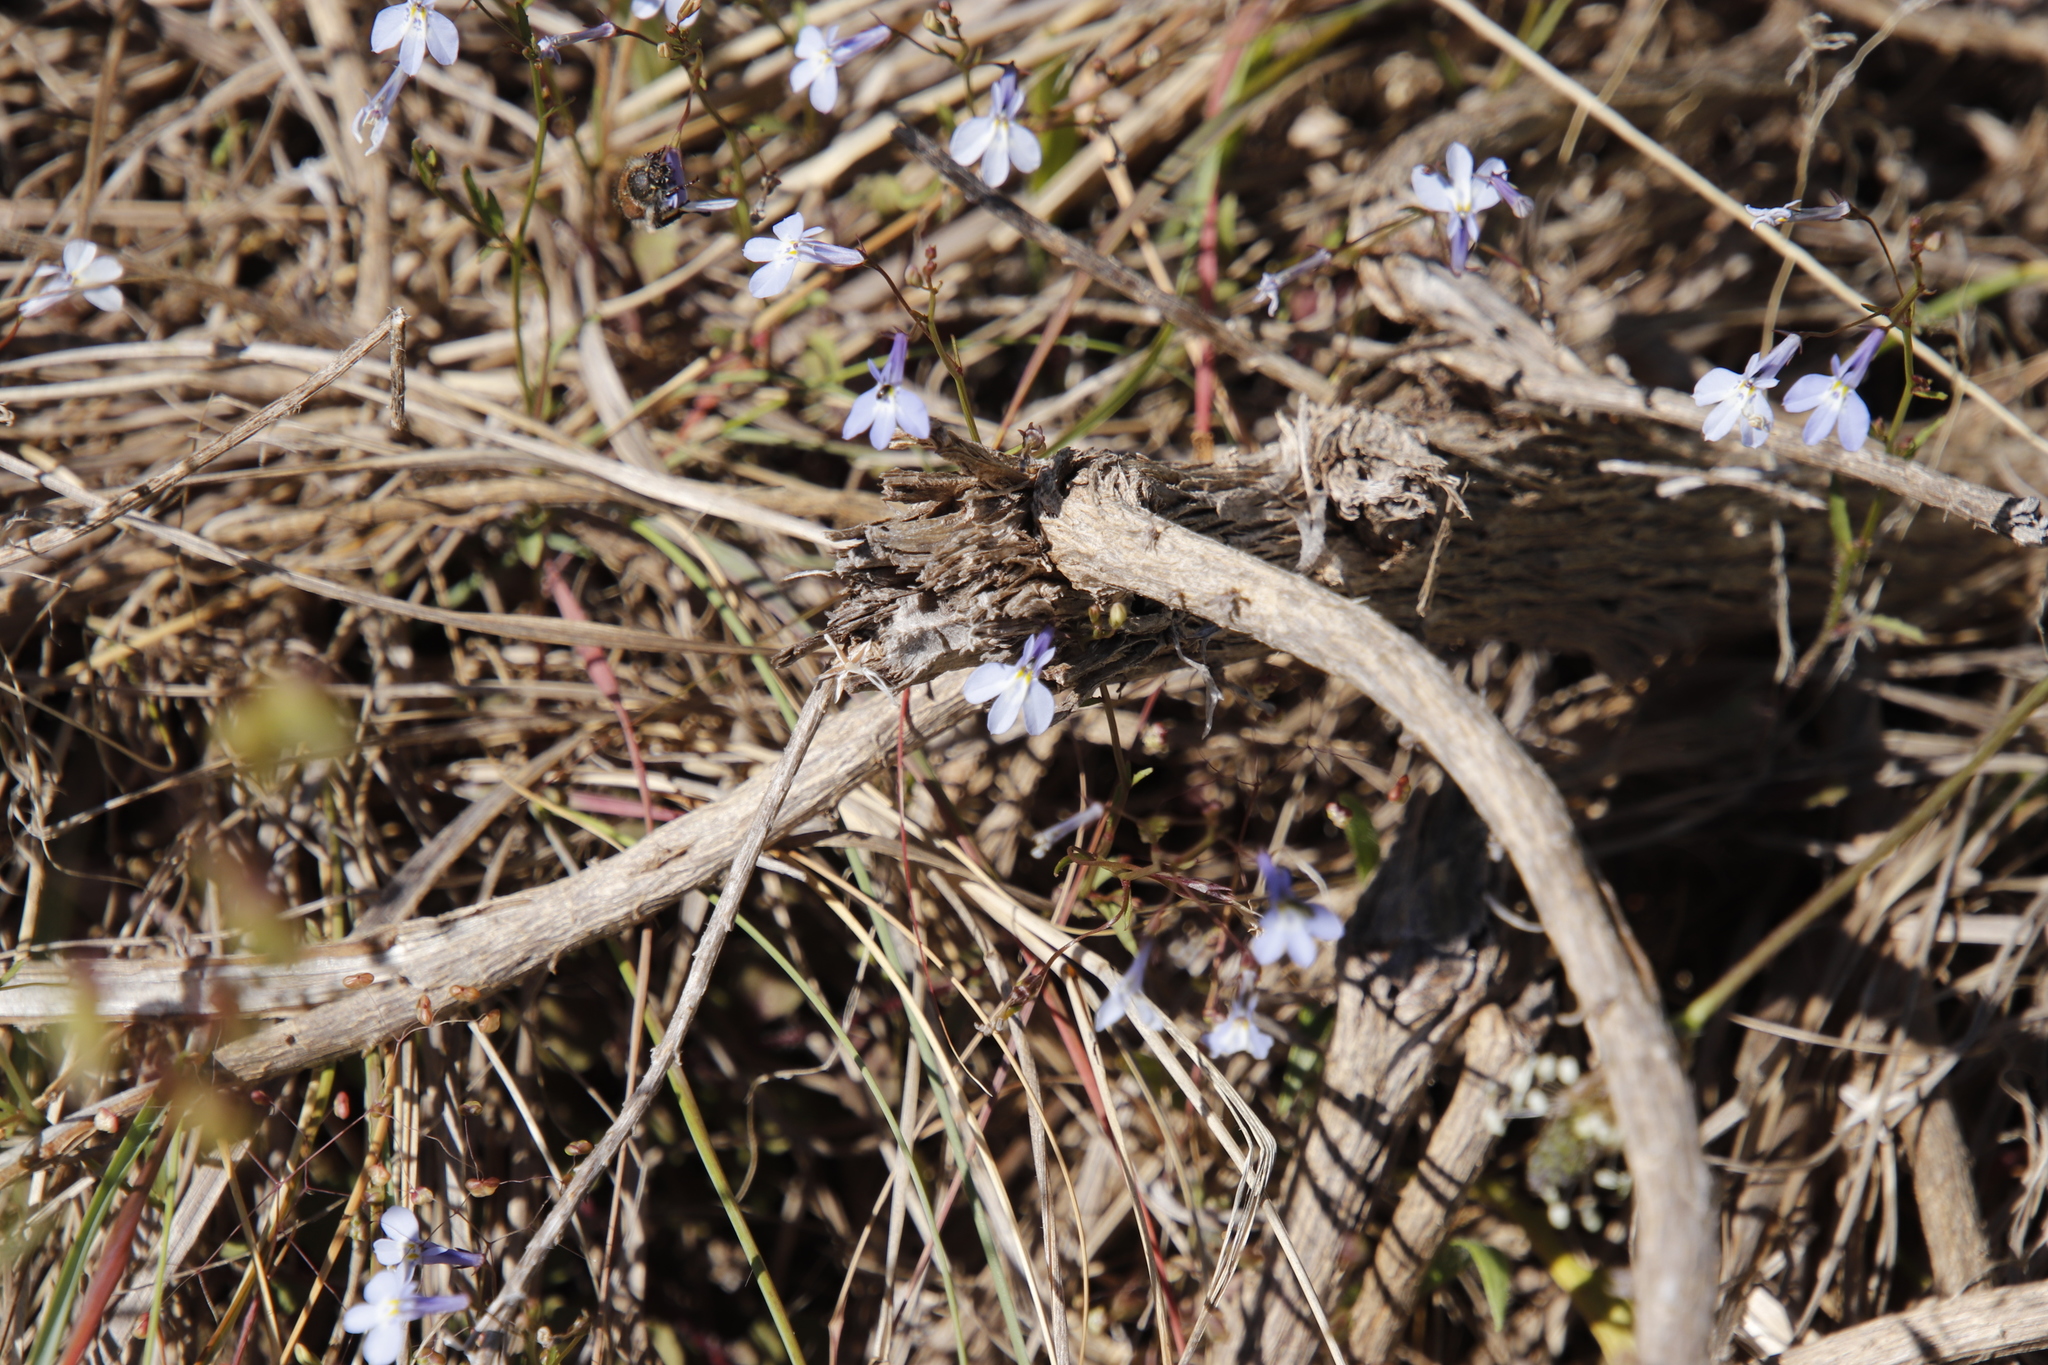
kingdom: Plantae
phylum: Tracheophyta
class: Magnoliopsida
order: Asterales
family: Campanulaceae
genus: Lobelia
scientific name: Lobelia erinus
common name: Edging lobelia
